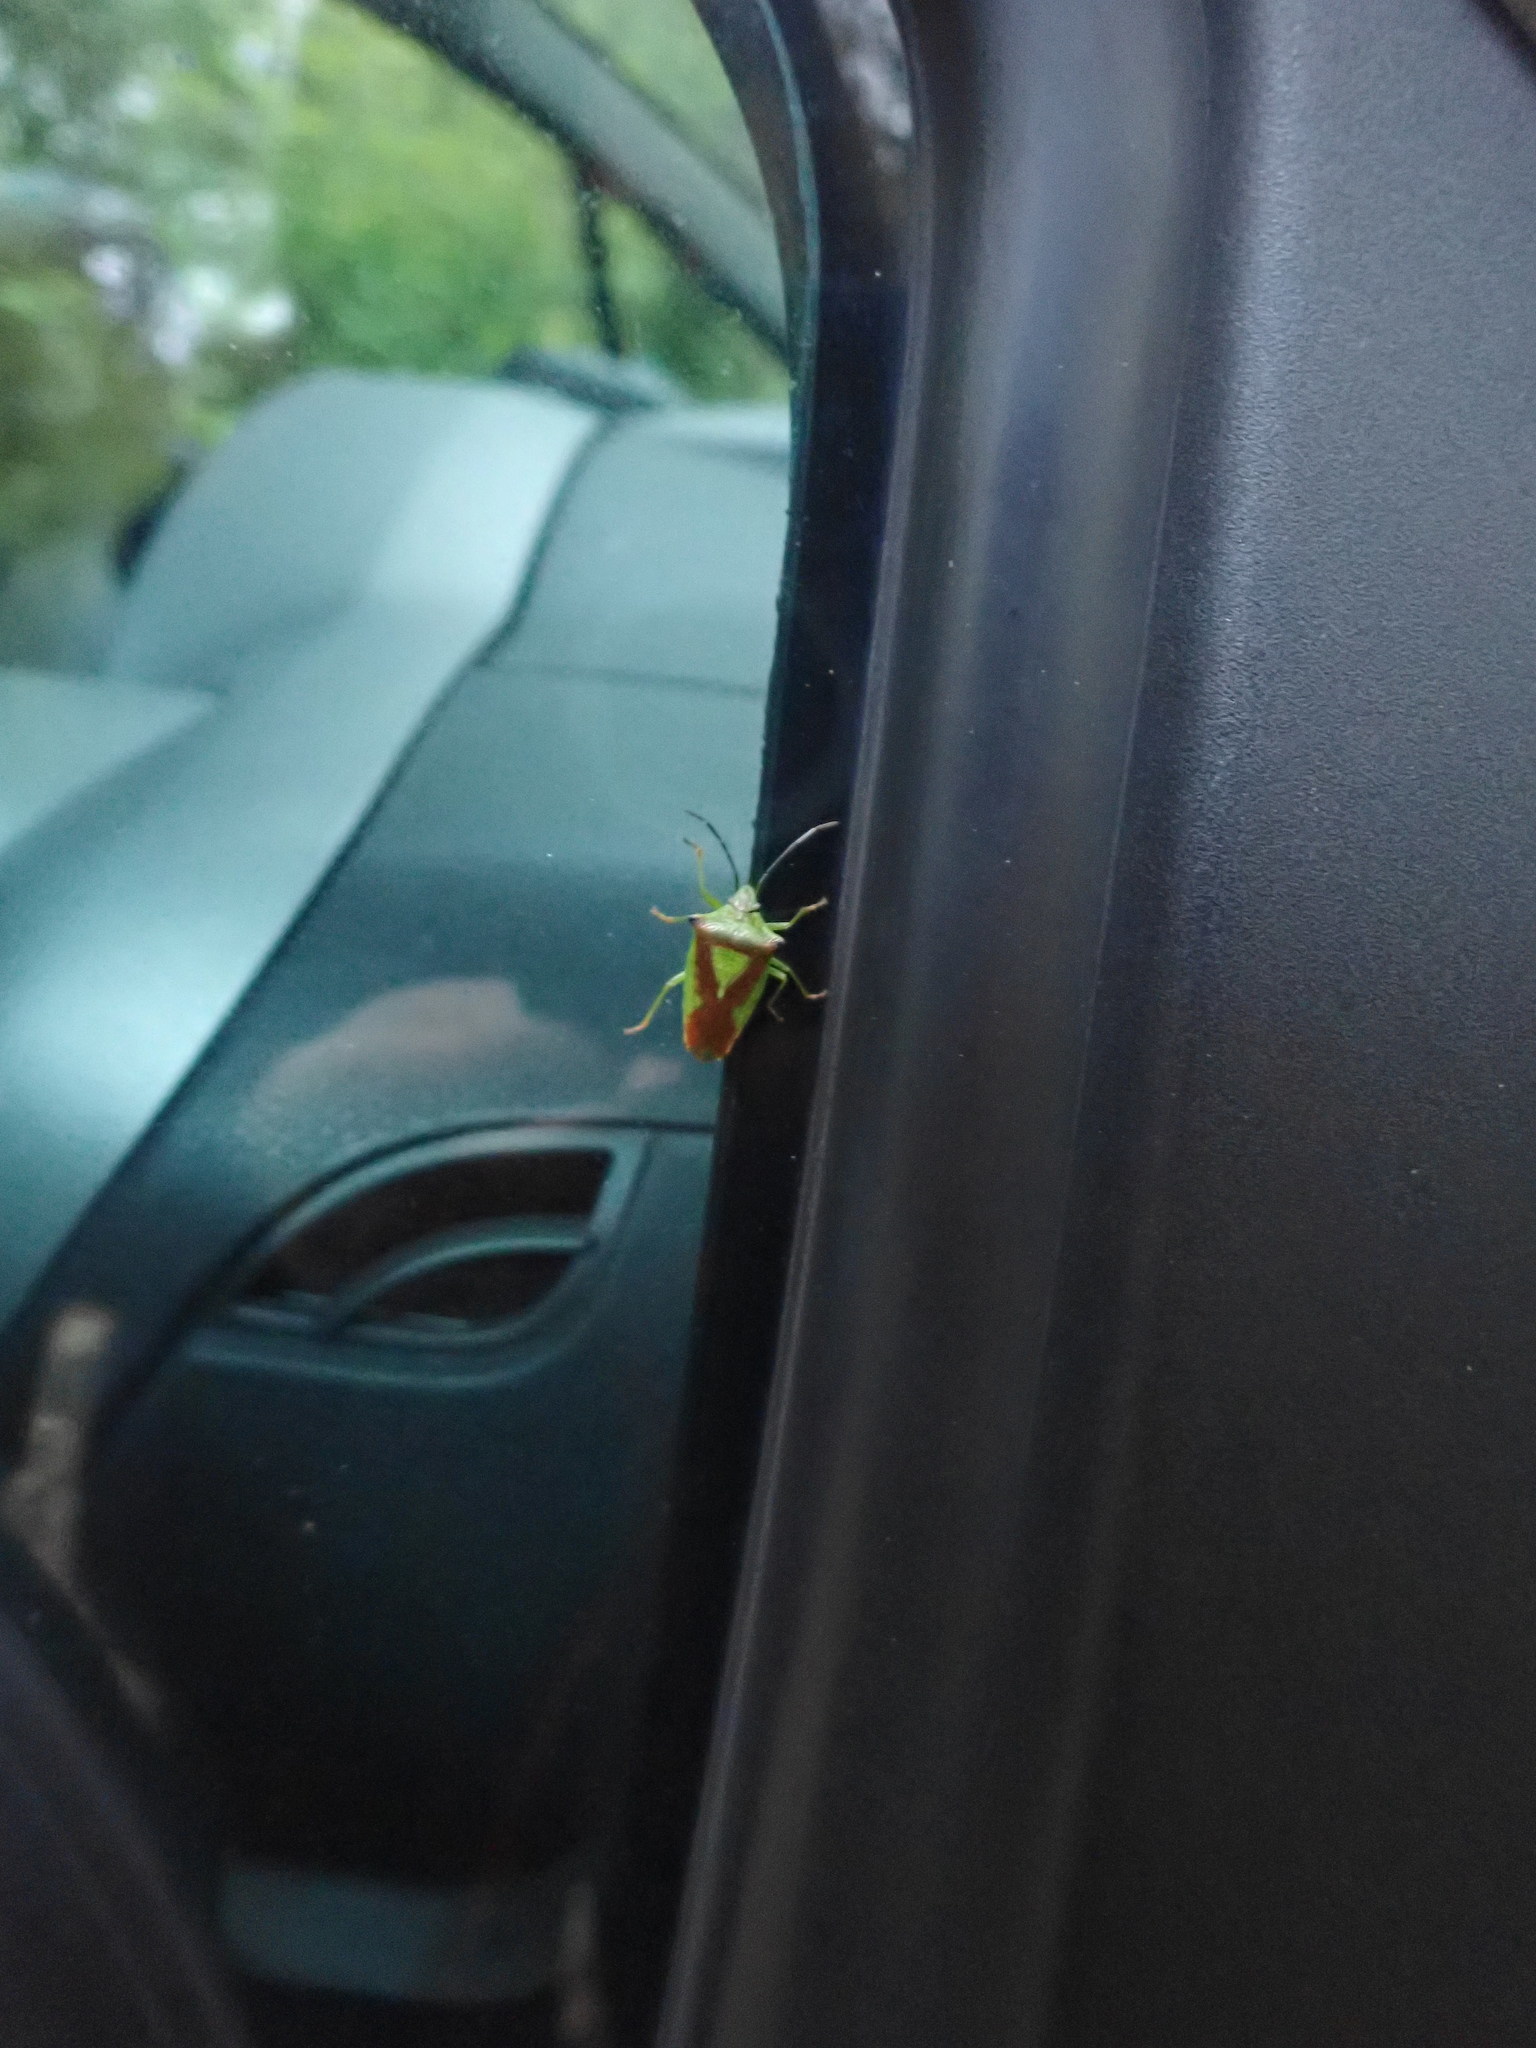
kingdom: Animalia
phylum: Arthropoda
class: Insecta
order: Hemiptera
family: Acanthosomatidae
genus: Acanthosoma
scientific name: Acanthosoma haemorrhoidale
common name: Hawthorn shieldbug
